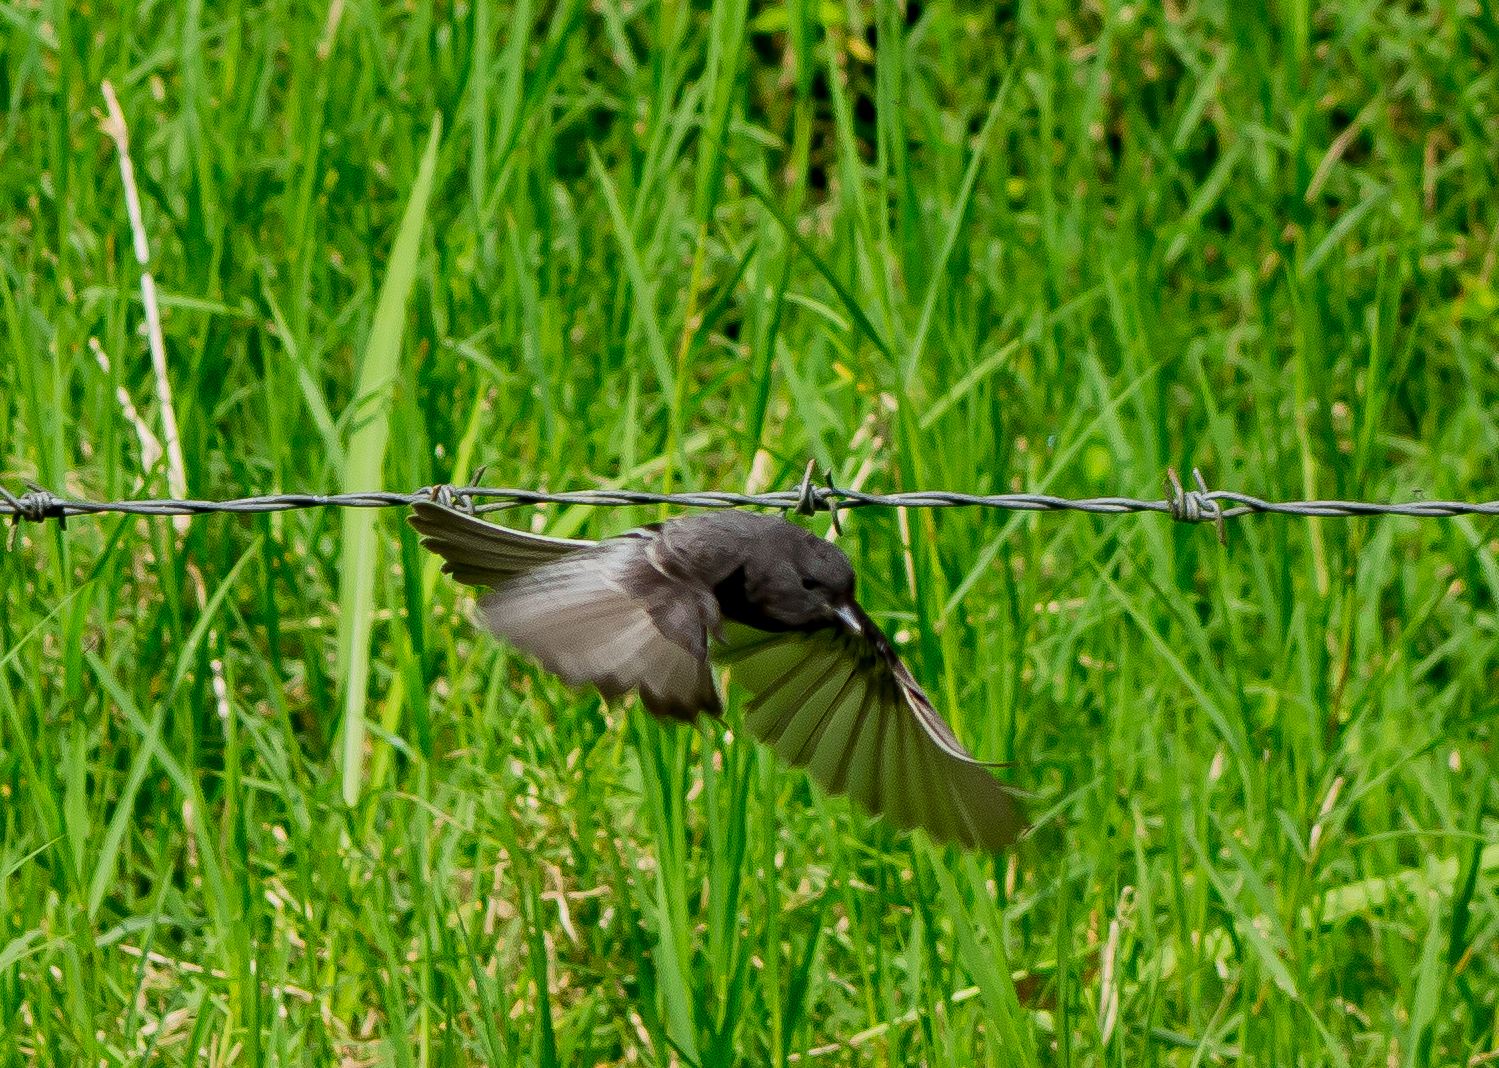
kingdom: Animalia
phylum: Chordata
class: Aves
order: Passeriformes
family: Tyrannidae
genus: Sayornis
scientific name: Sayornis nigricans
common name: Black phoebe
